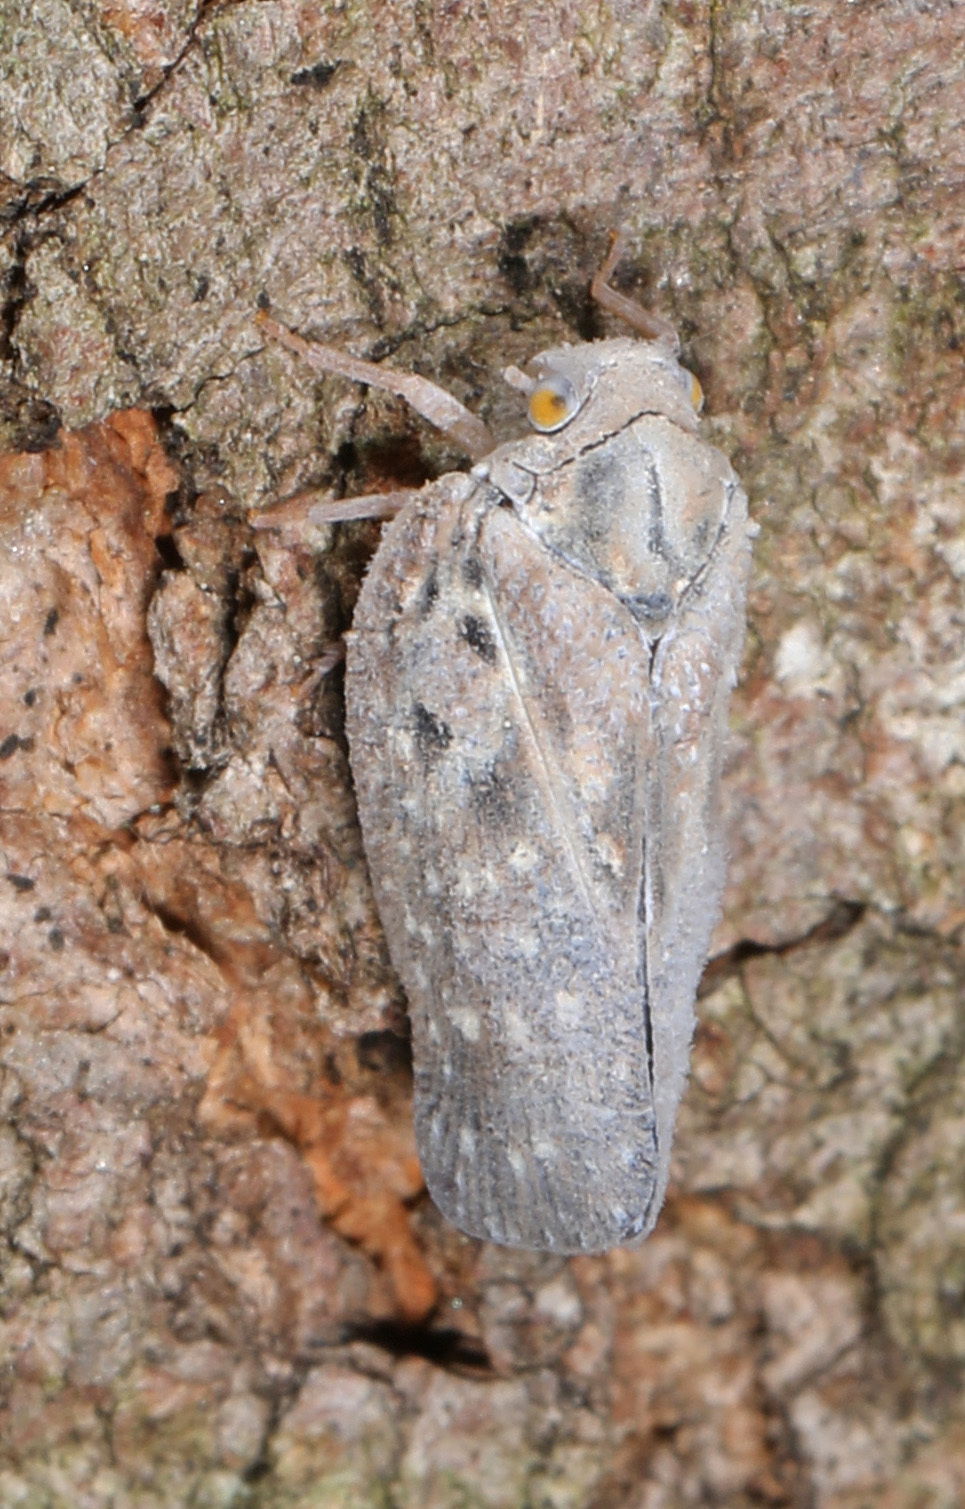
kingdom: Animalia
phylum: Arthropoda
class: Insecta
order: Hemiptera
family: Flatidae
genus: Metcalfa
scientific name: Metcalfa pruinosa
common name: Citrus flatid planthopper
